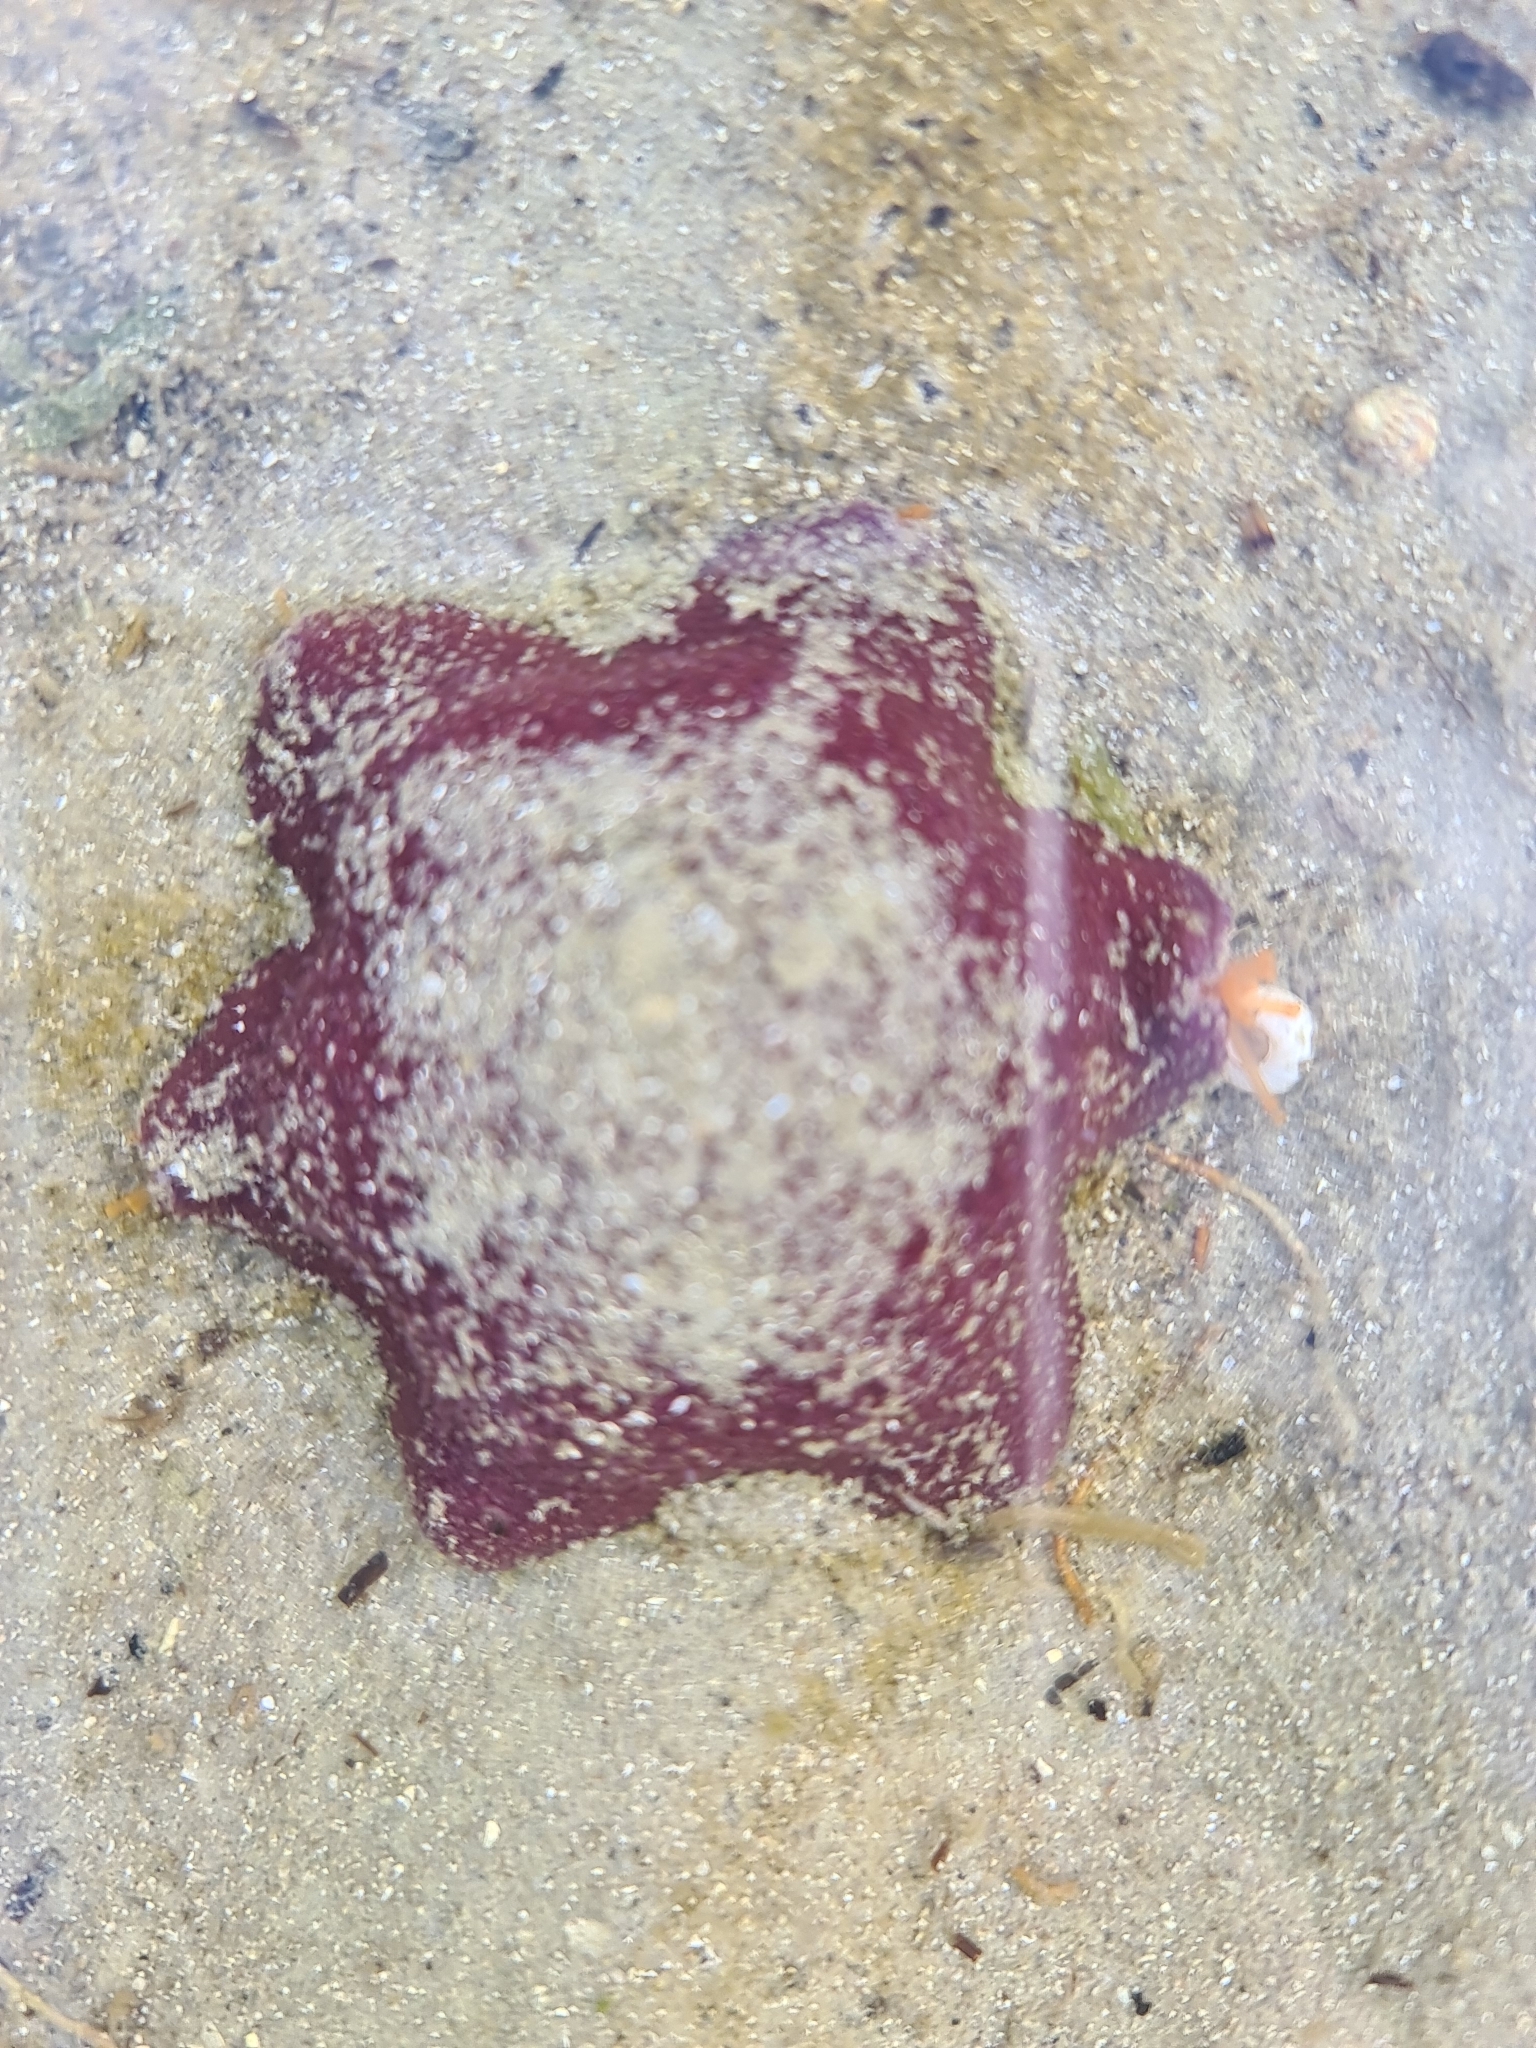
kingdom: Animalia
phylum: Echinodermata
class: Asteroidea
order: Valvatida
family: Asterinidae
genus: Meridiastra
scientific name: Meridiastra gunnii
